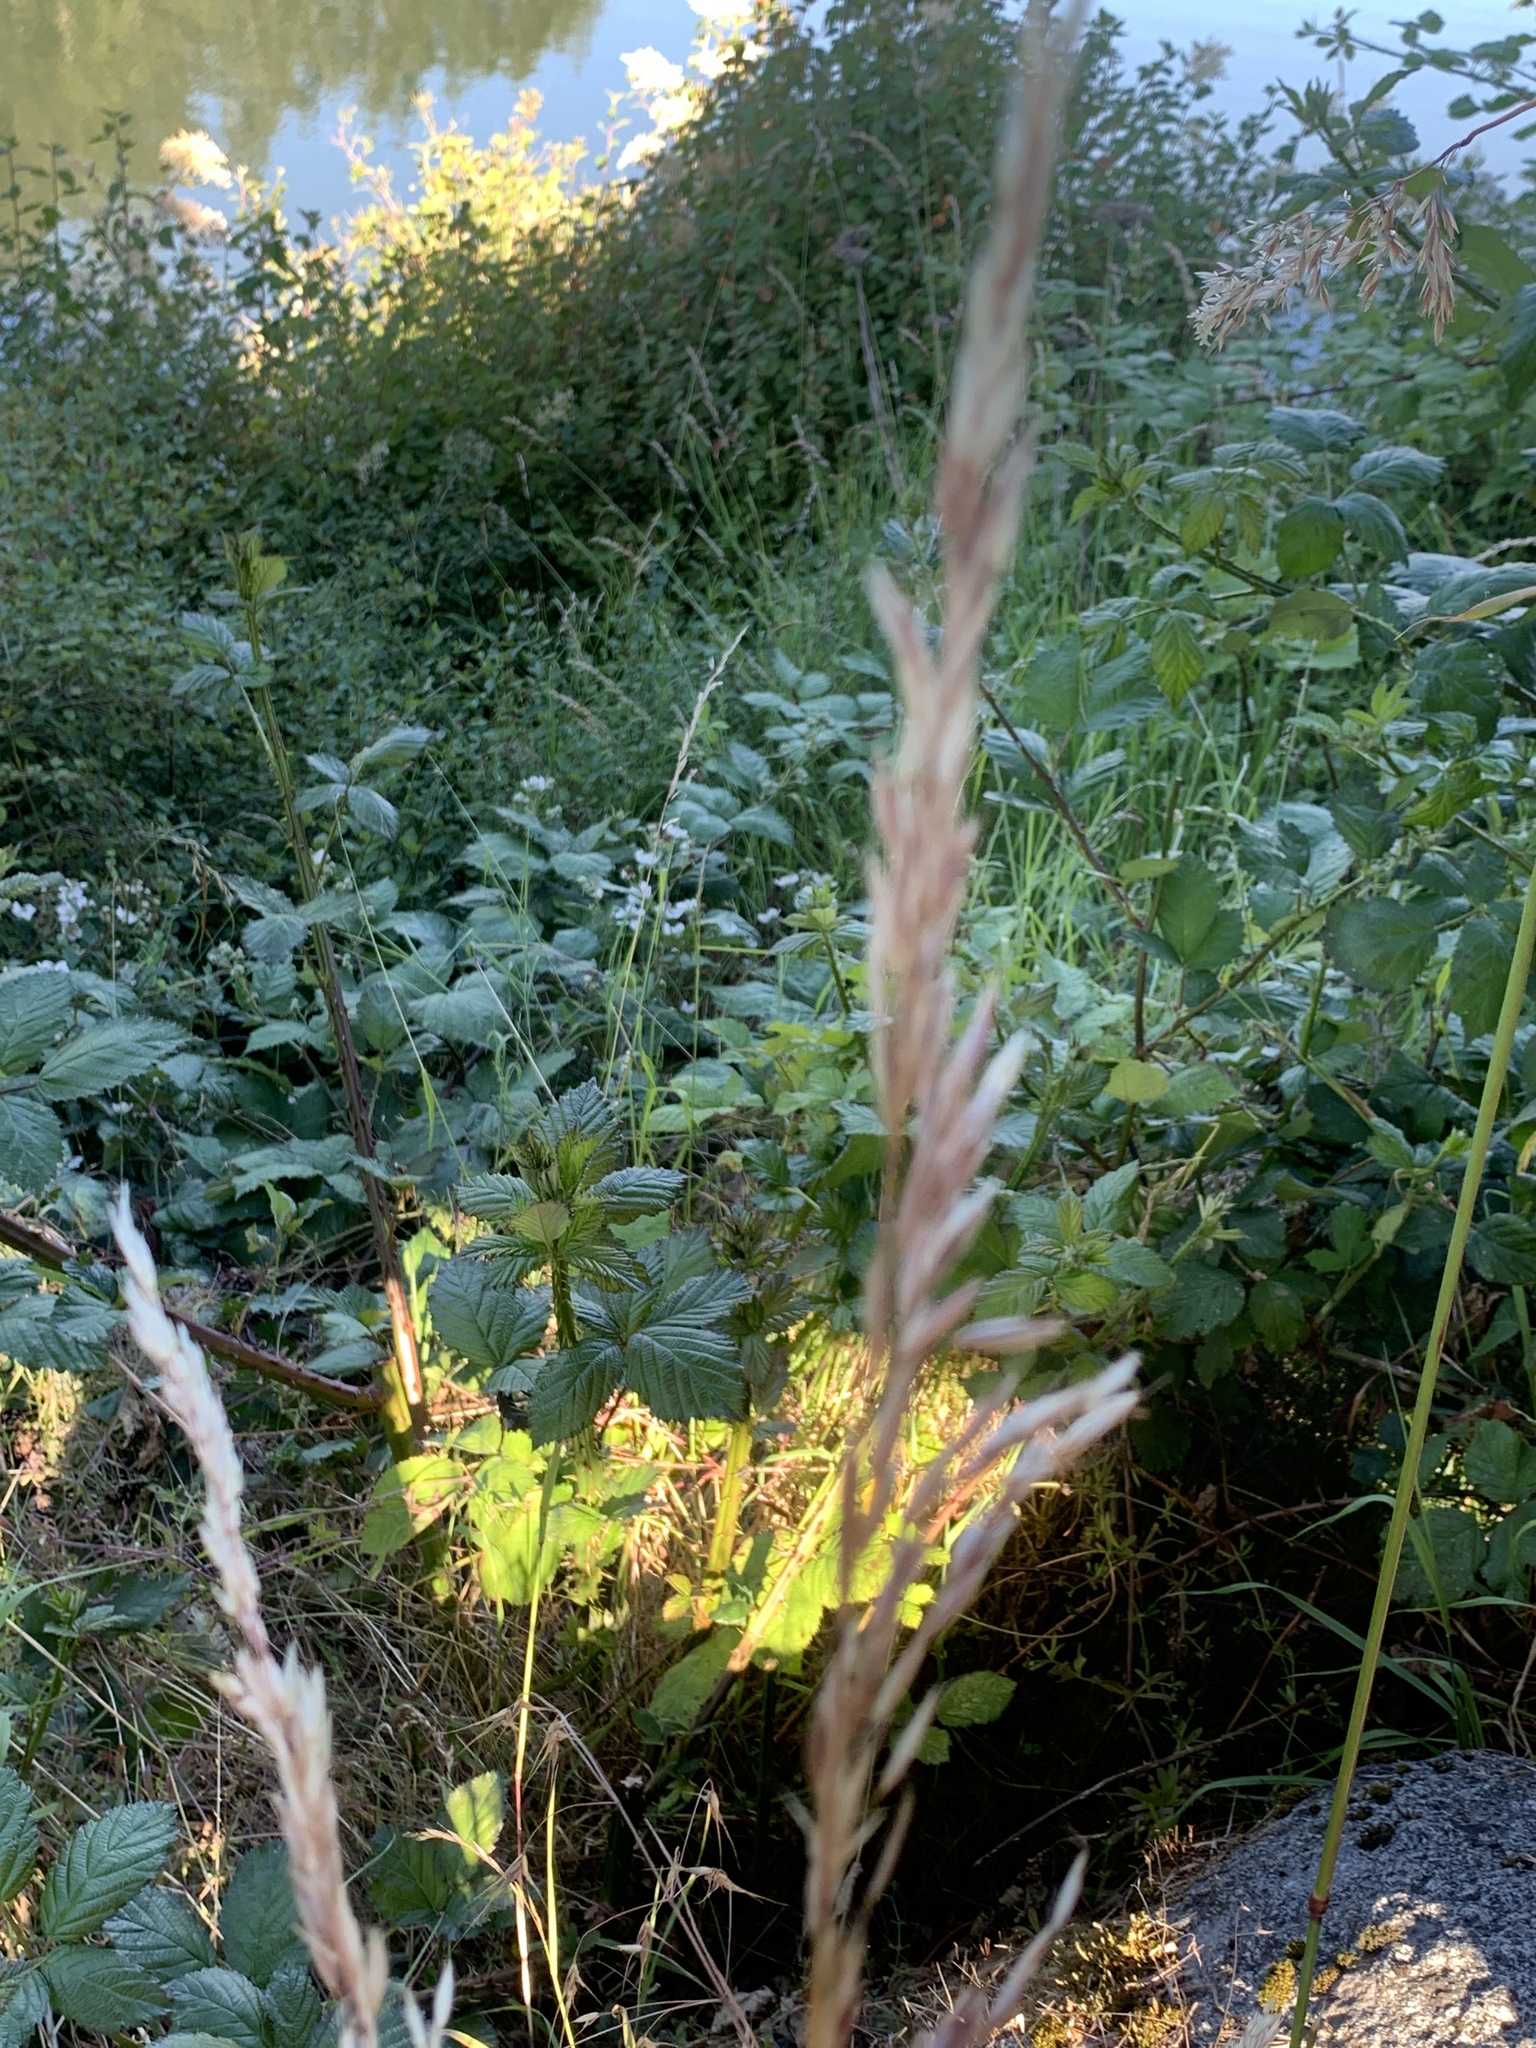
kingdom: Plantae
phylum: Tracheophyta
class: Liliopsida
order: Poales
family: Poaceae
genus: Bromus
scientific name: Bromus inermis
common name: Smooth brome
